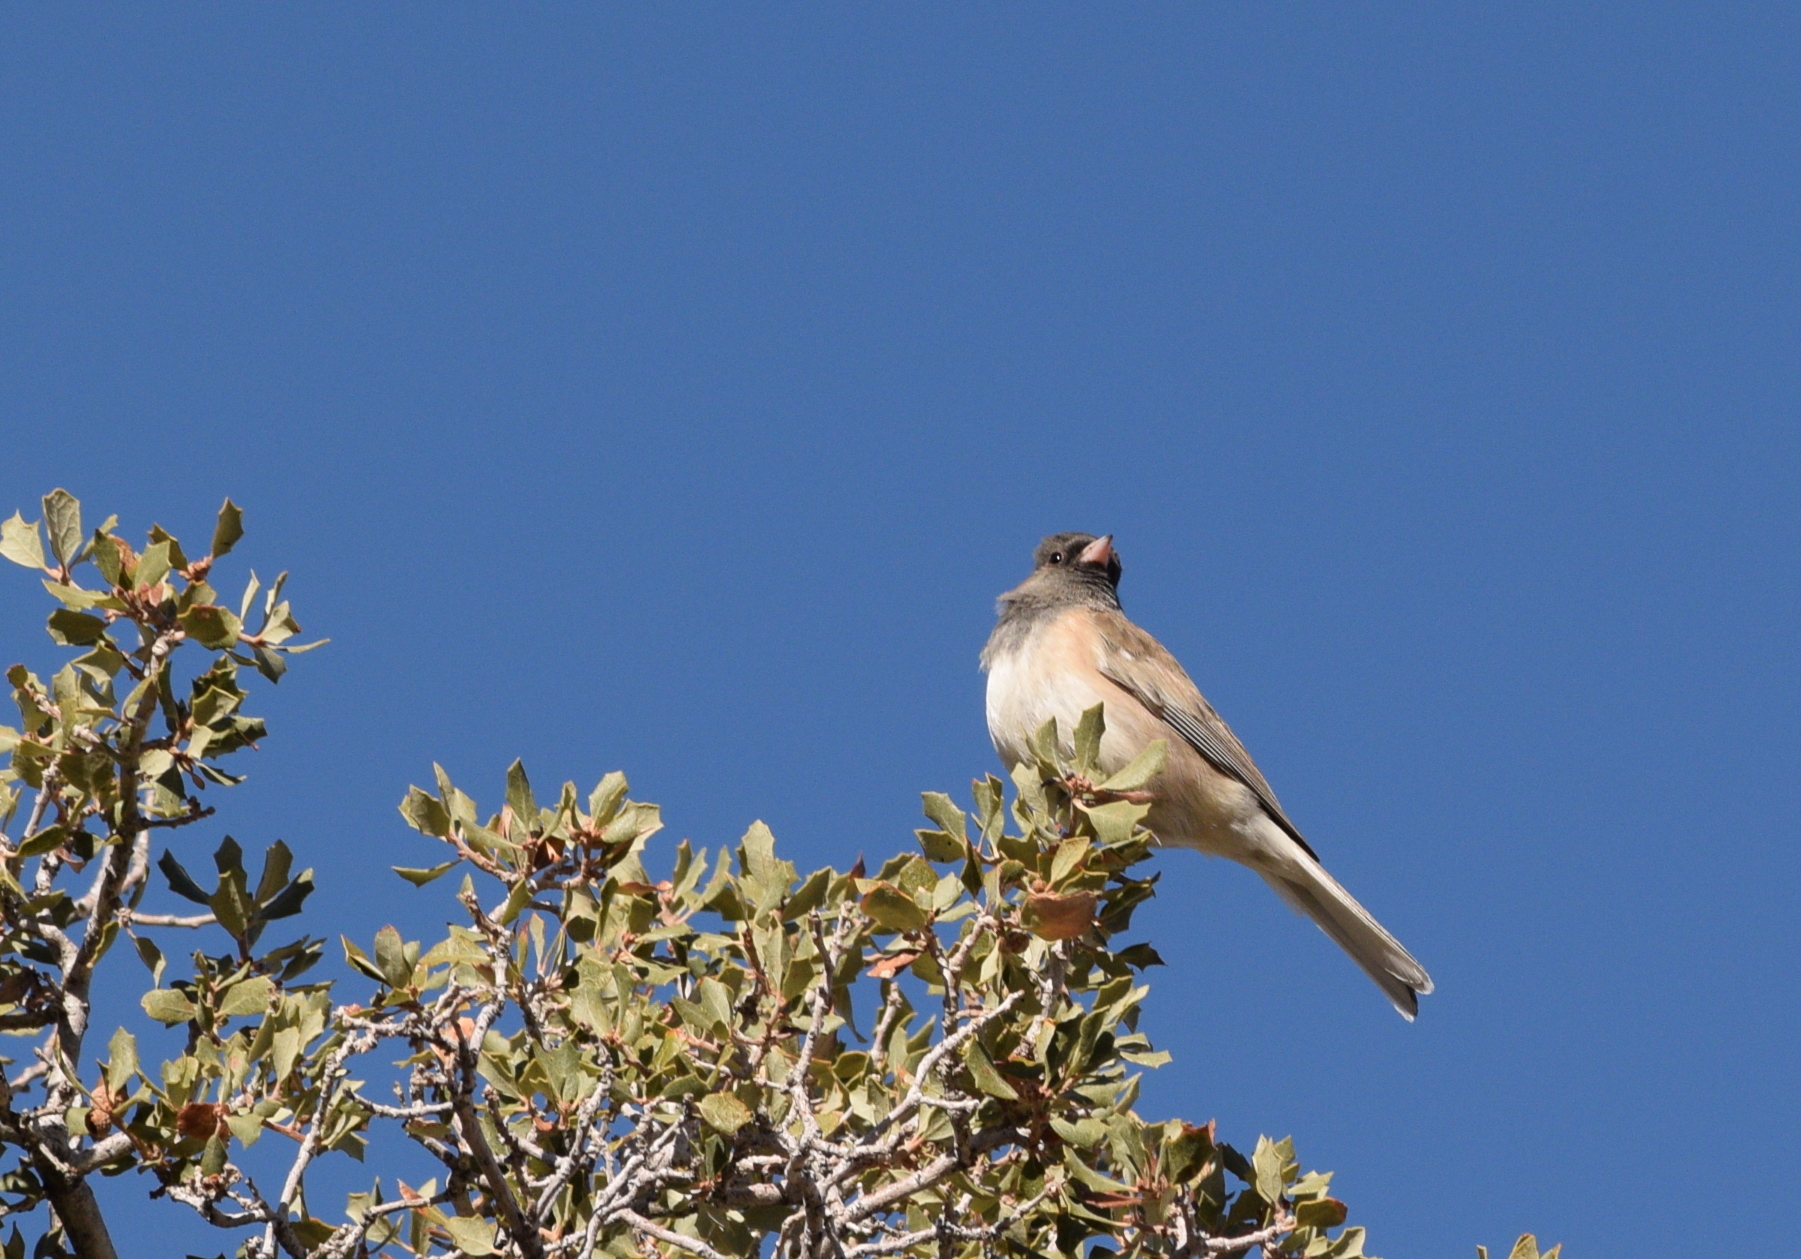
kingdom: Animalia
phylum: Chordata
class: Aves
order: Passeriformes
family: Passerellidae
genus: Junco
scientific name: Junco hyemalis
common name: Dark-eyed junco
